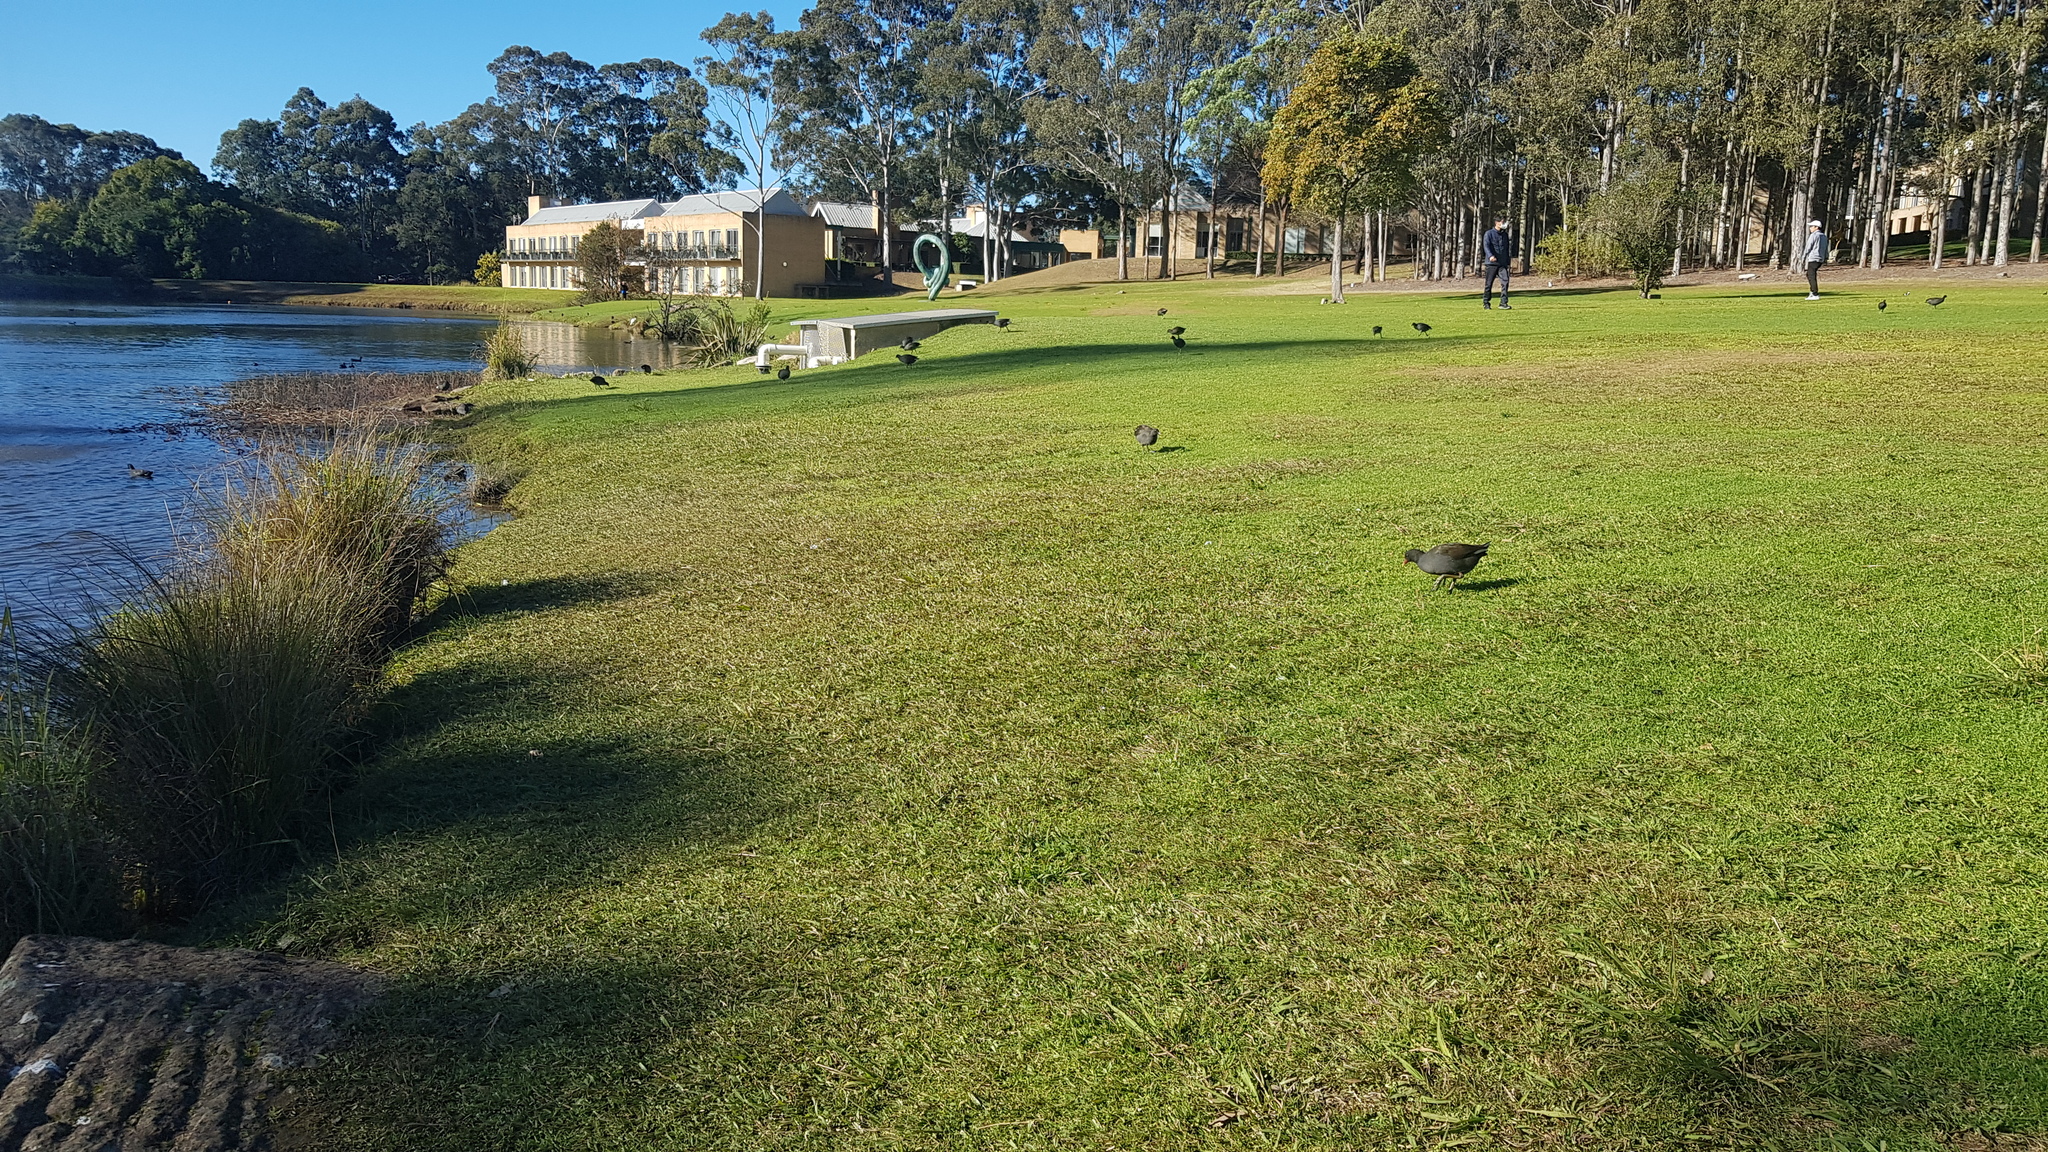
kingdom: Animalia
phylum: Chordata
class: Aves
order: Gruiformes
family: Rallidae
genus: Gallinula
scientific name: Gallinula tenebrosa
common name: Dusky moorhen
